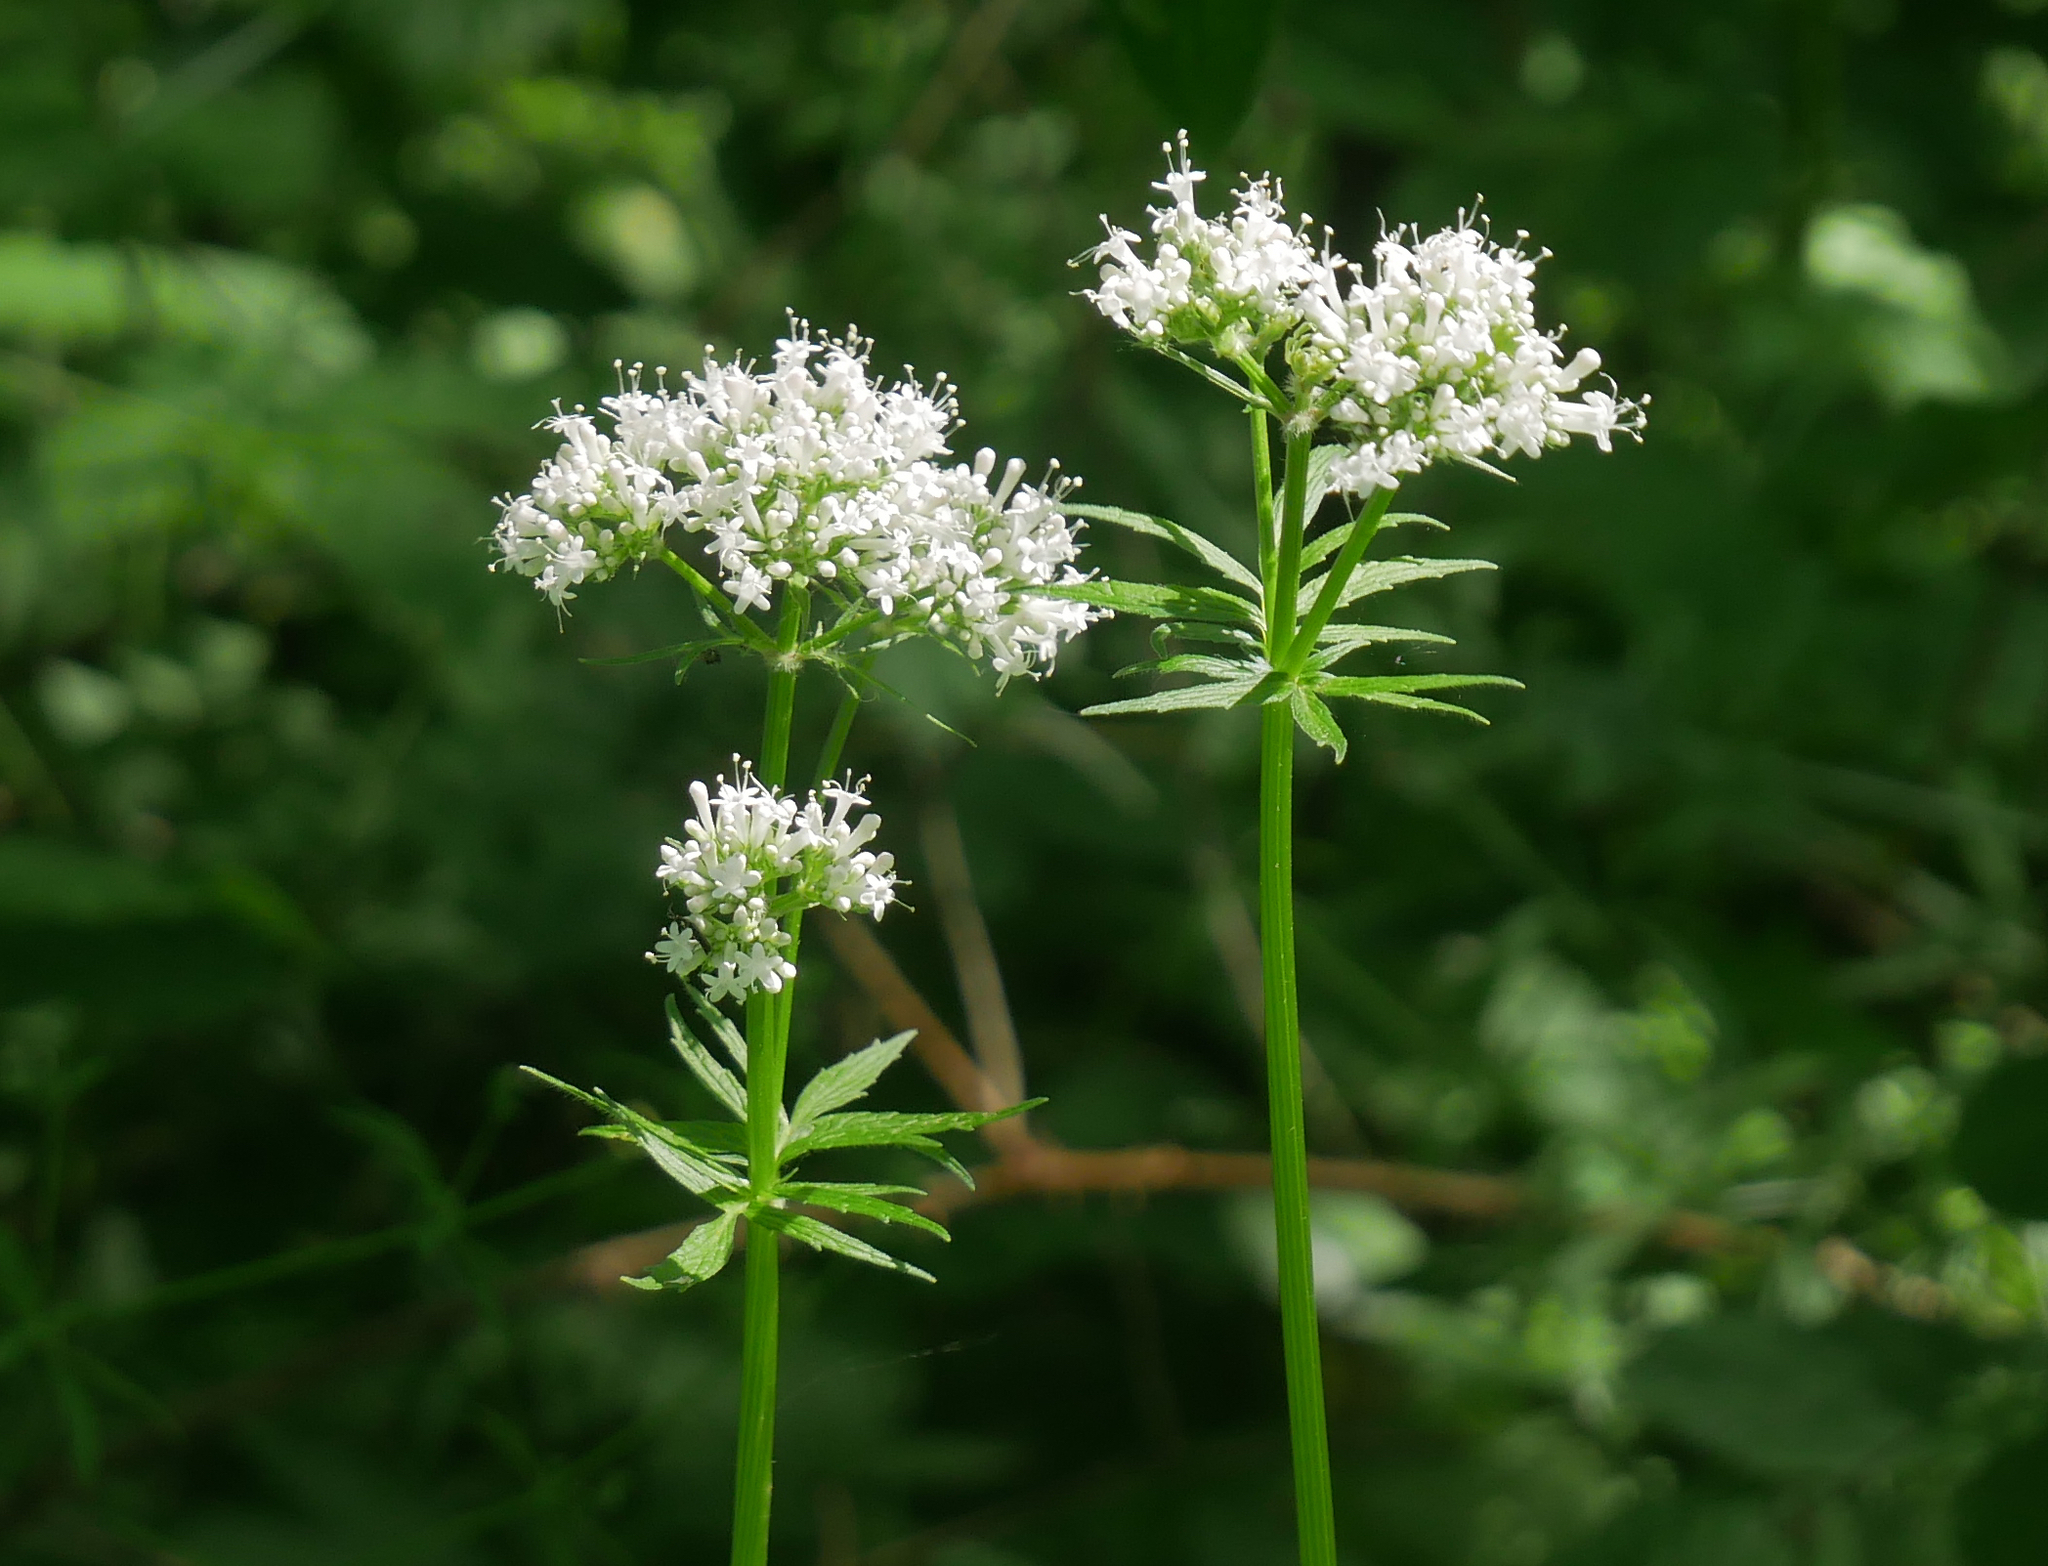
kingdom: Plantae
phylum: Tracheophyta
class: Magnoliopsida
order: Dipsacales
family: Caprifoliaceae
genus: Valeriana
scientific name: Valeriana officinalis
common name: Common valerian
